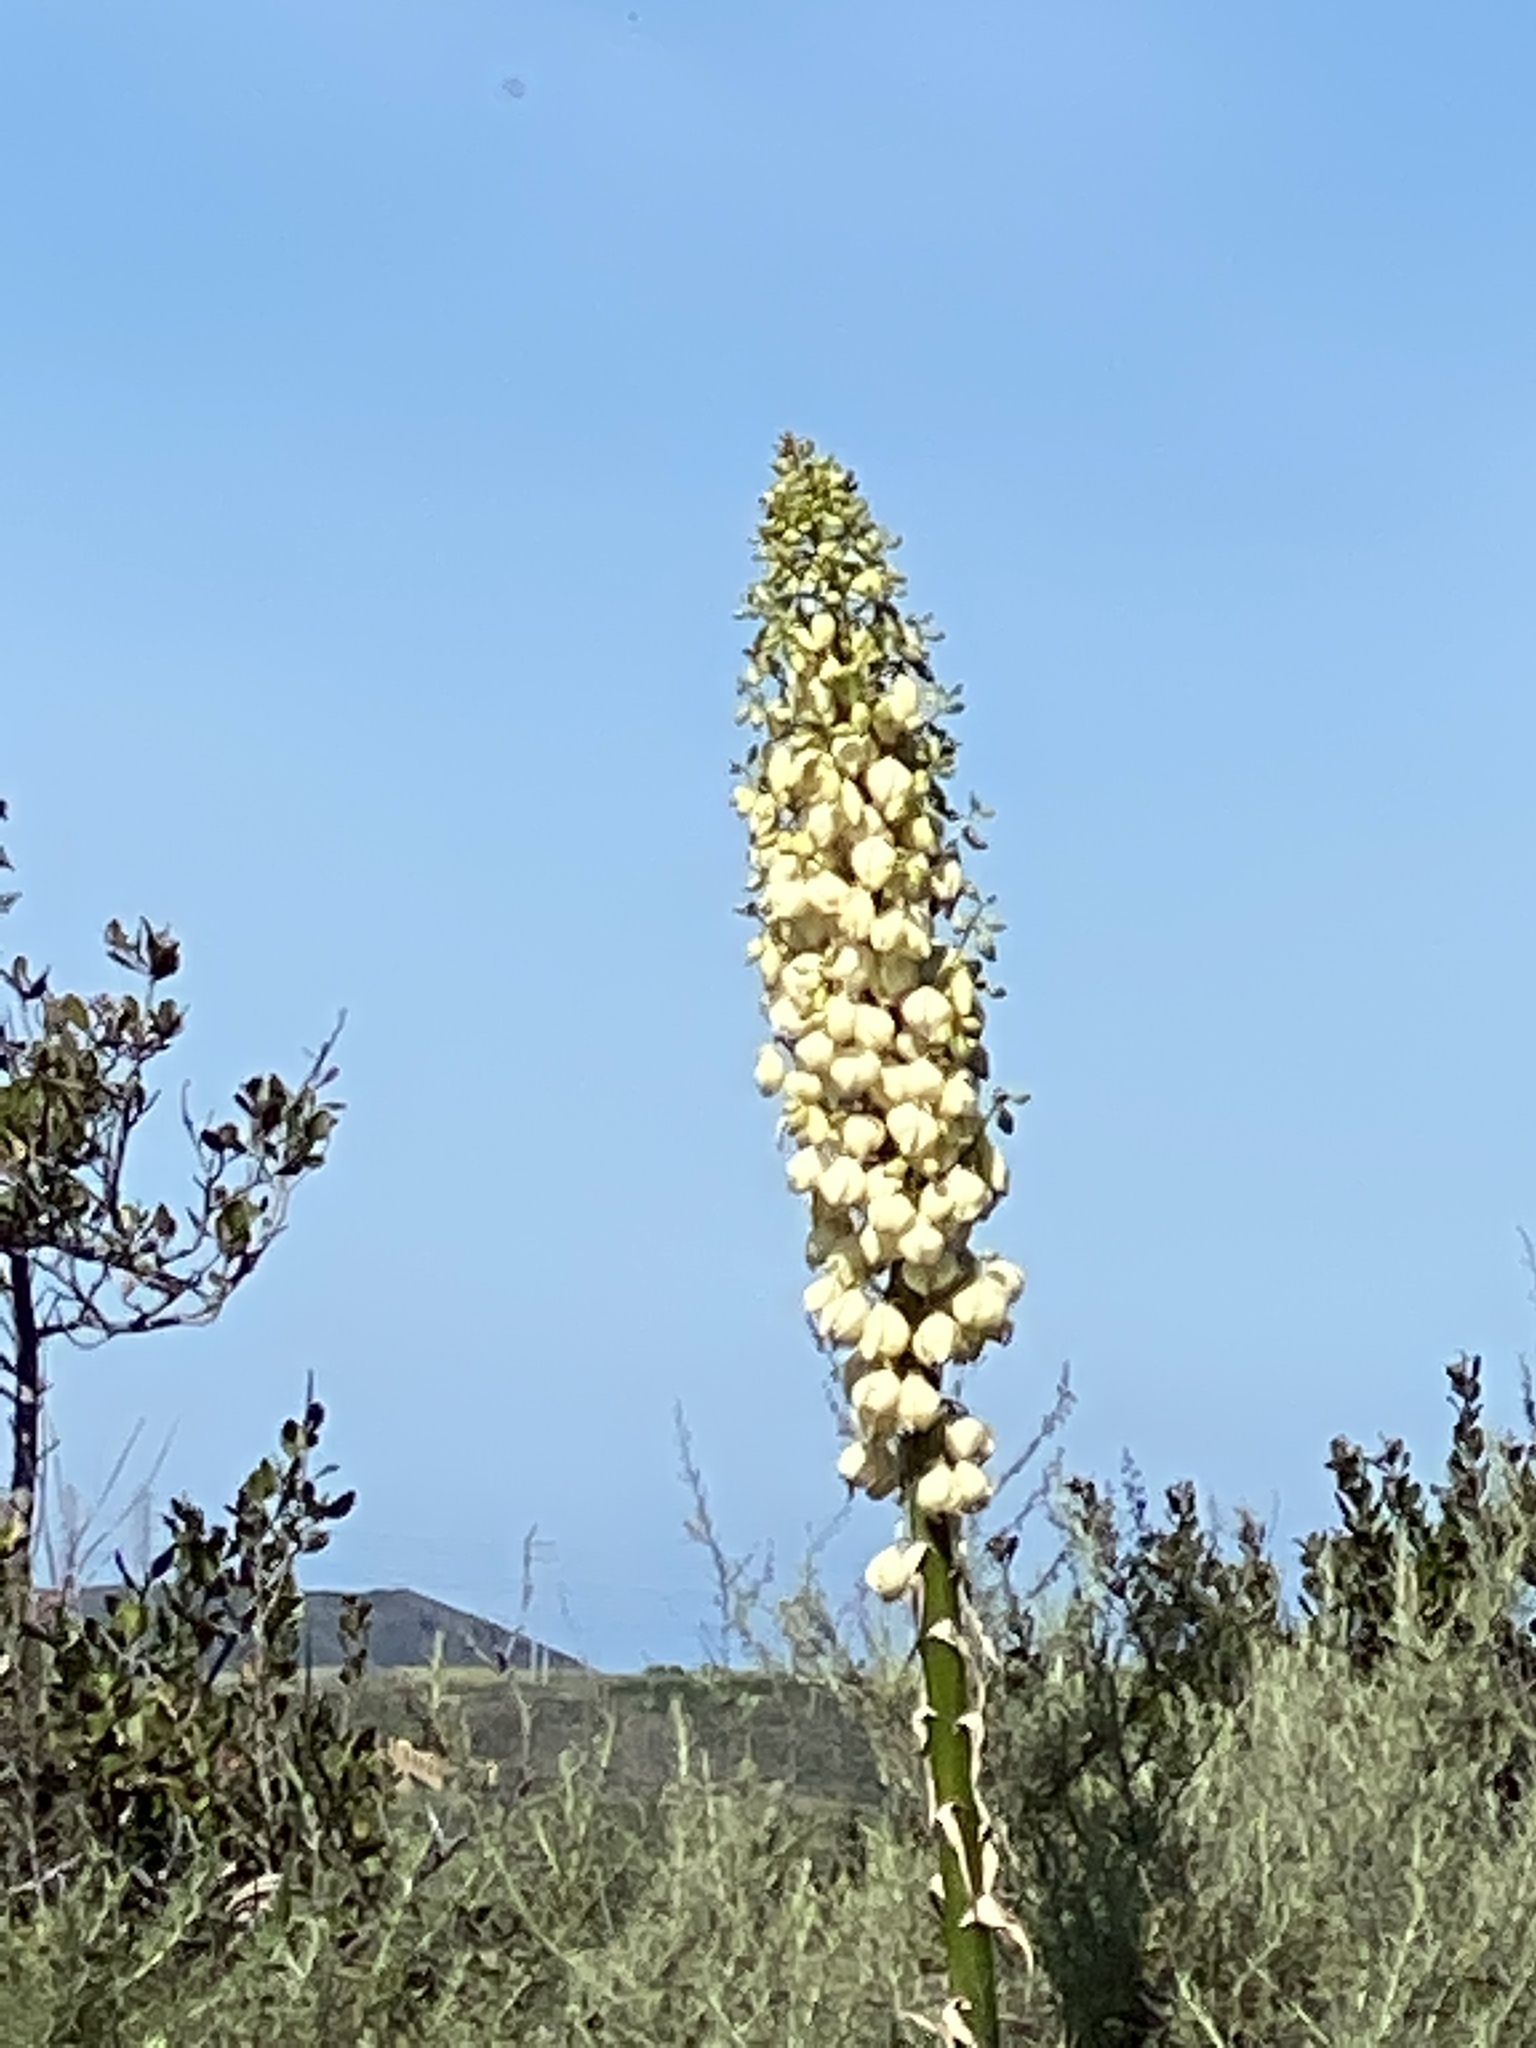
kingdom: Plantae
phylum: Tracheophyta
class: Liliopsida
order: Asparagales
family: Asparagaceae
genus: Hesperoyucca
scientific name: Hesperoyucca whipplei
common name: Our lord's-candle
